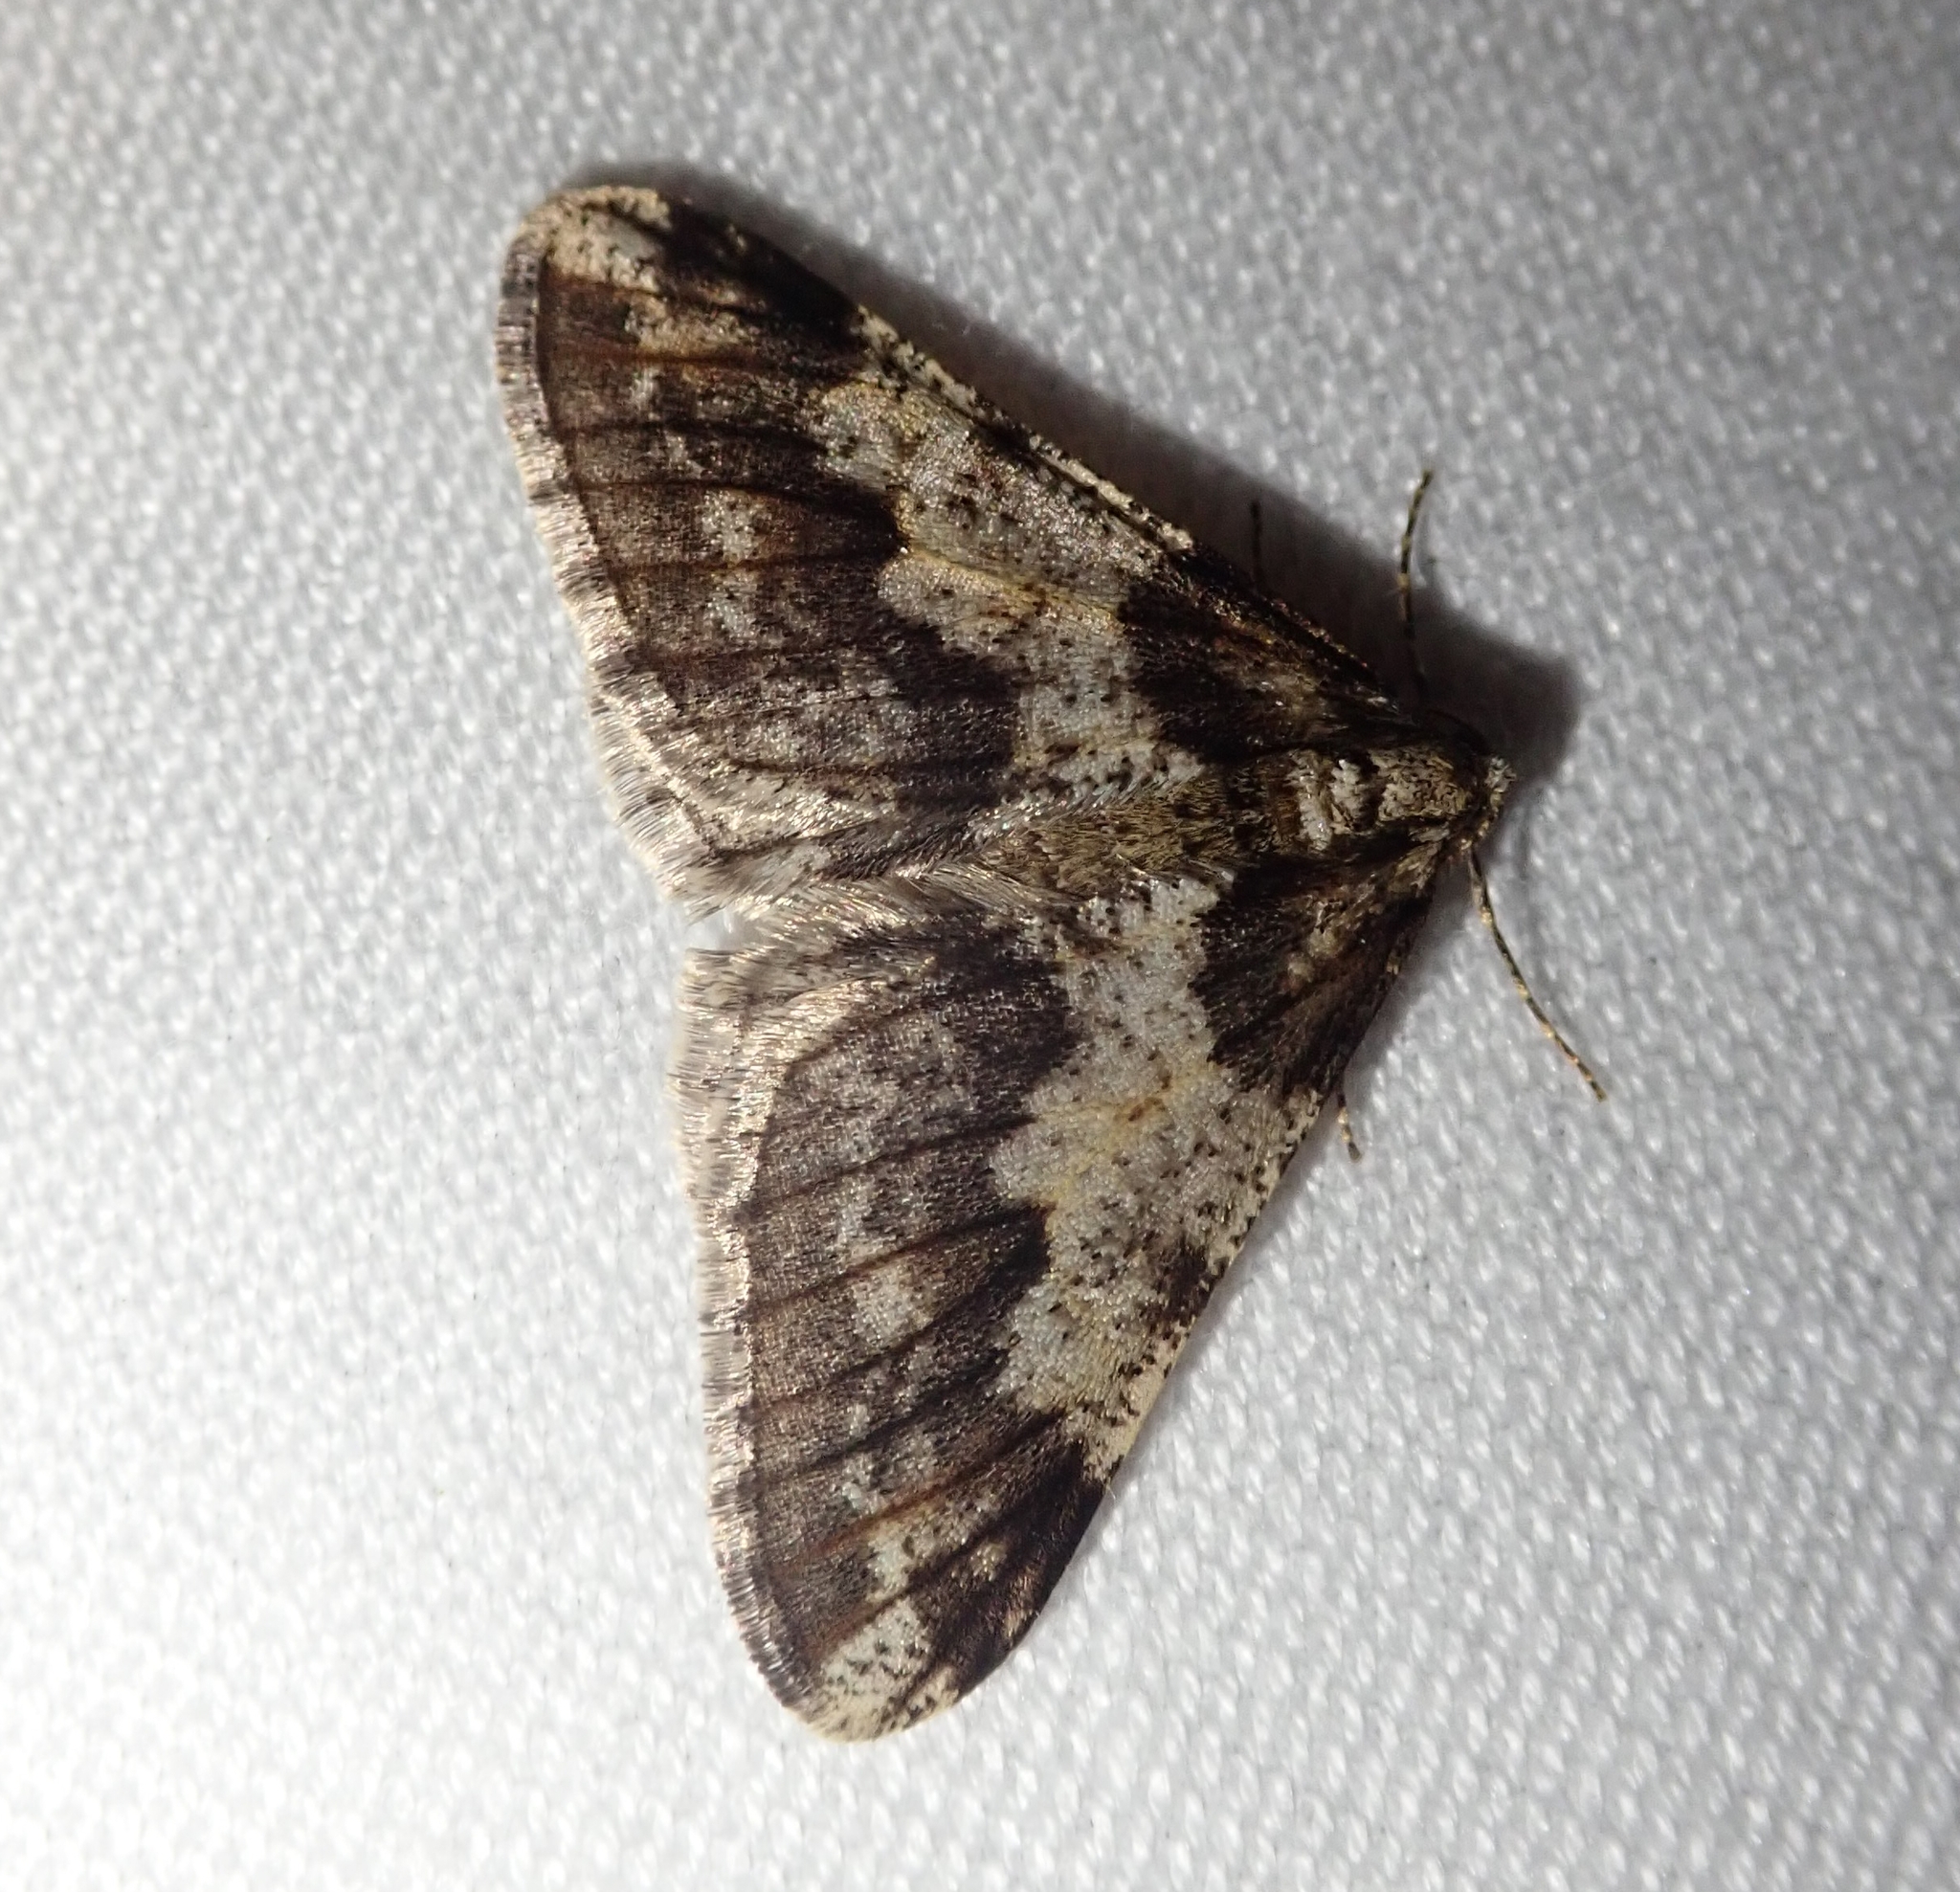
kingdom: Animalia
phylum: Arthropoda
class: Insecta
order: Lepidoptera
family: Geometridae
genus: Agriopis
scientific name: Agriopis leucophaearia
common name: Spring usher
